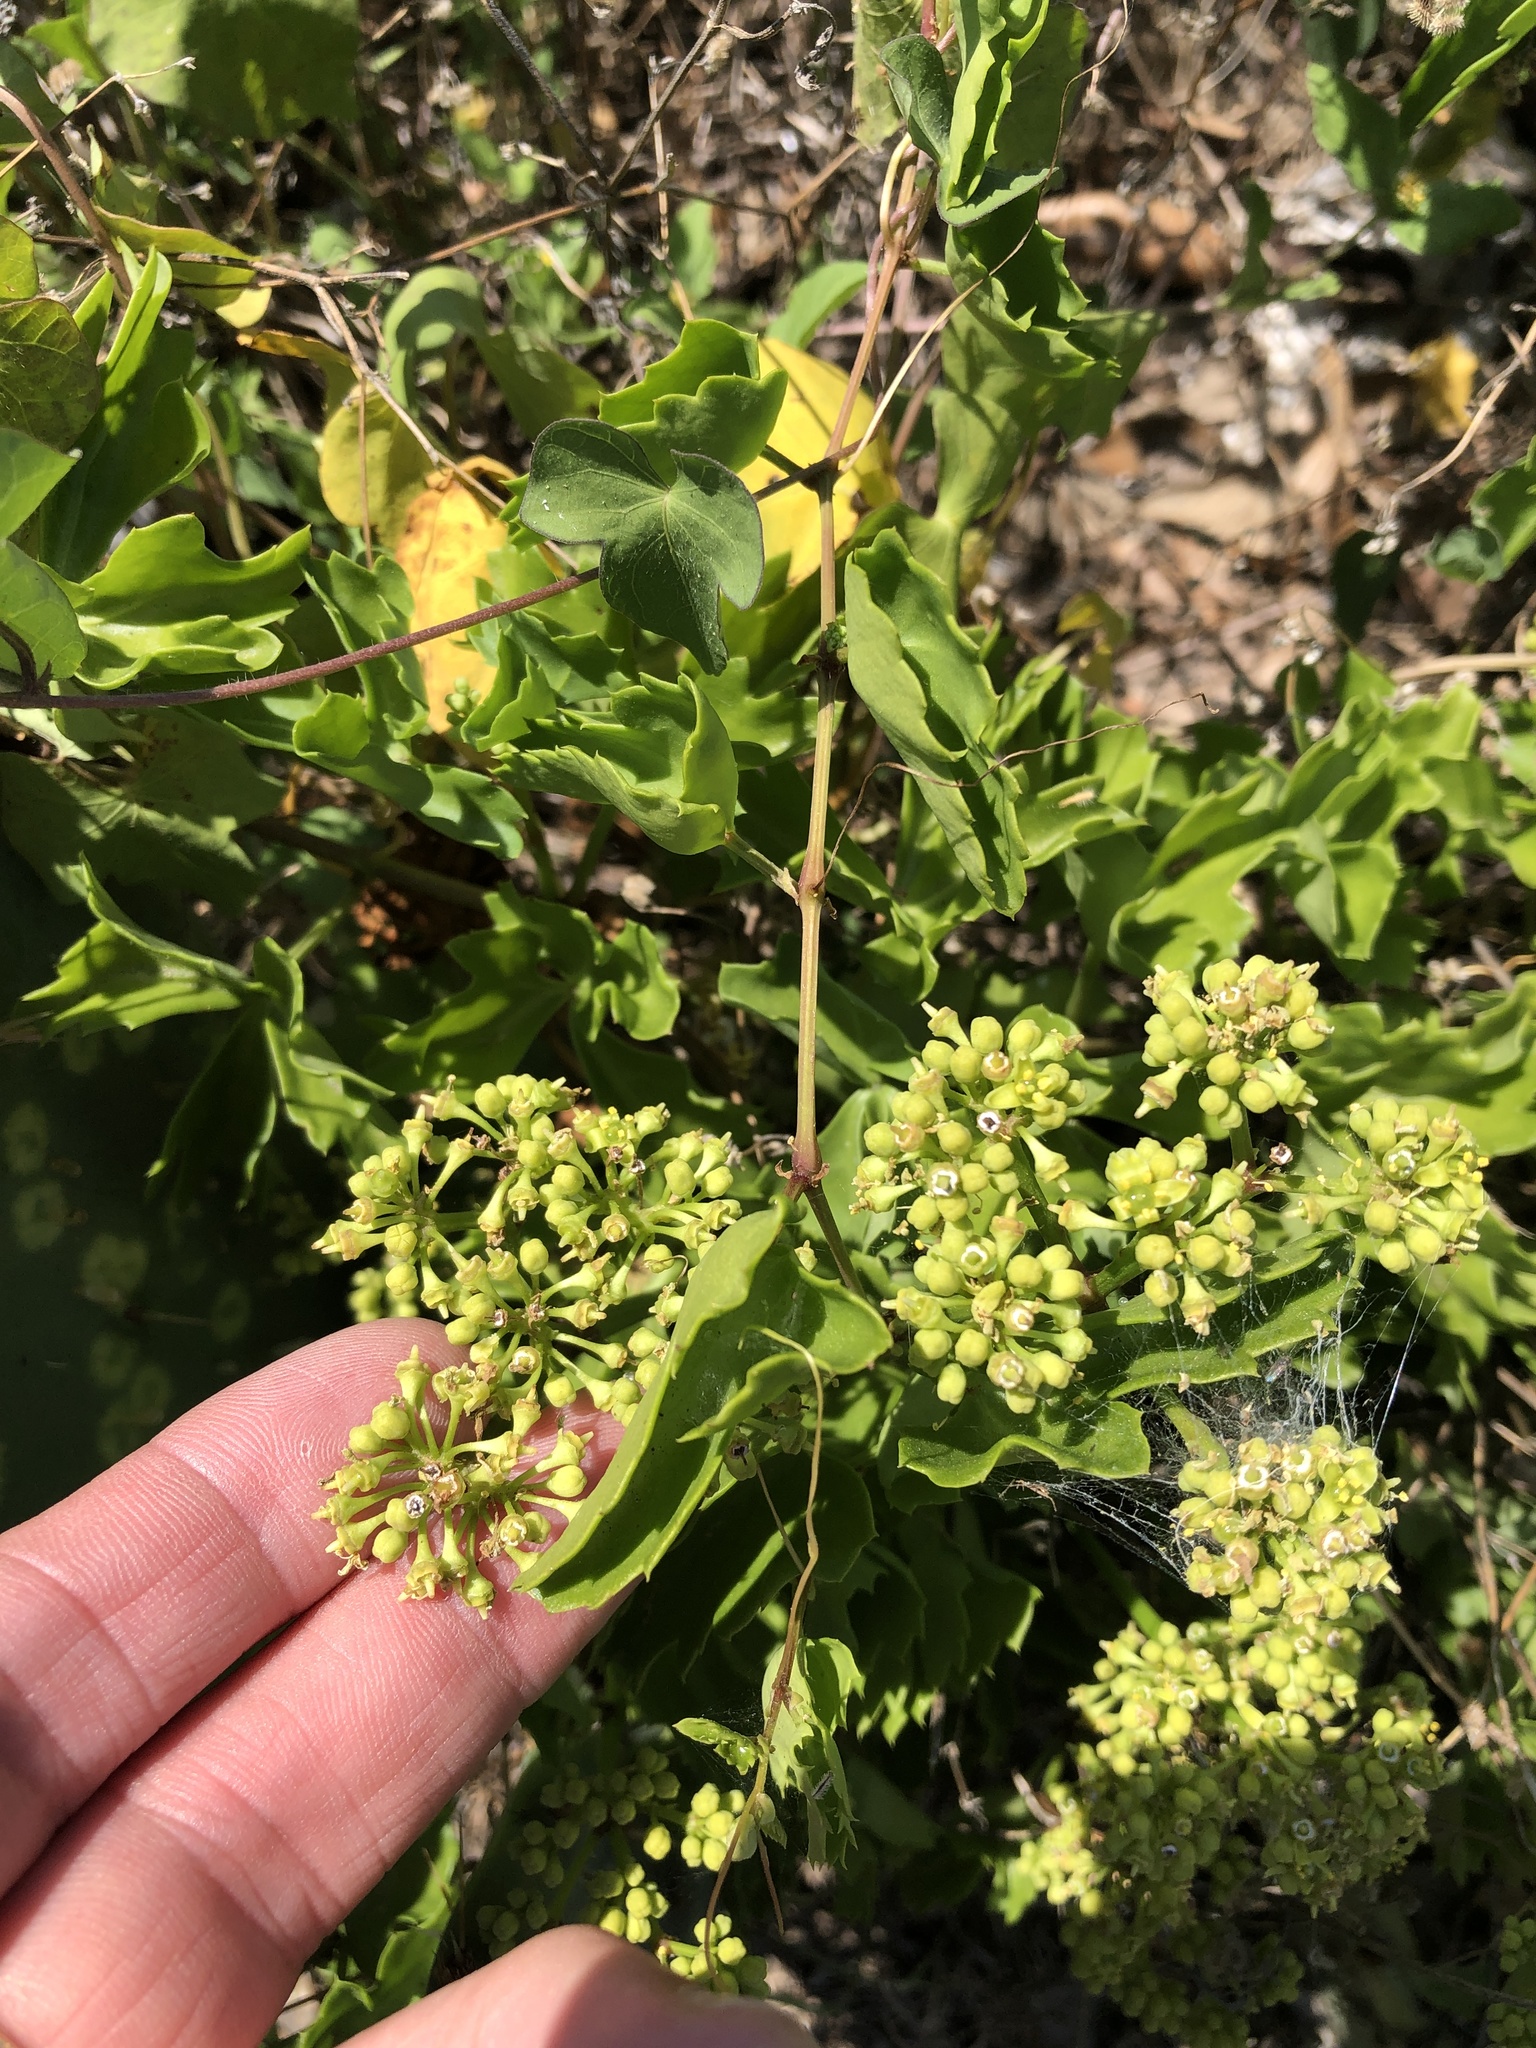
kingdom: Plantae
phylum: Tracheophyta
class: Magnoliopsida
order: Vitales
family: Vitaceae
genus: Cissus
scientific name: Cissus trifoliata
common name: Vine-sorrel
